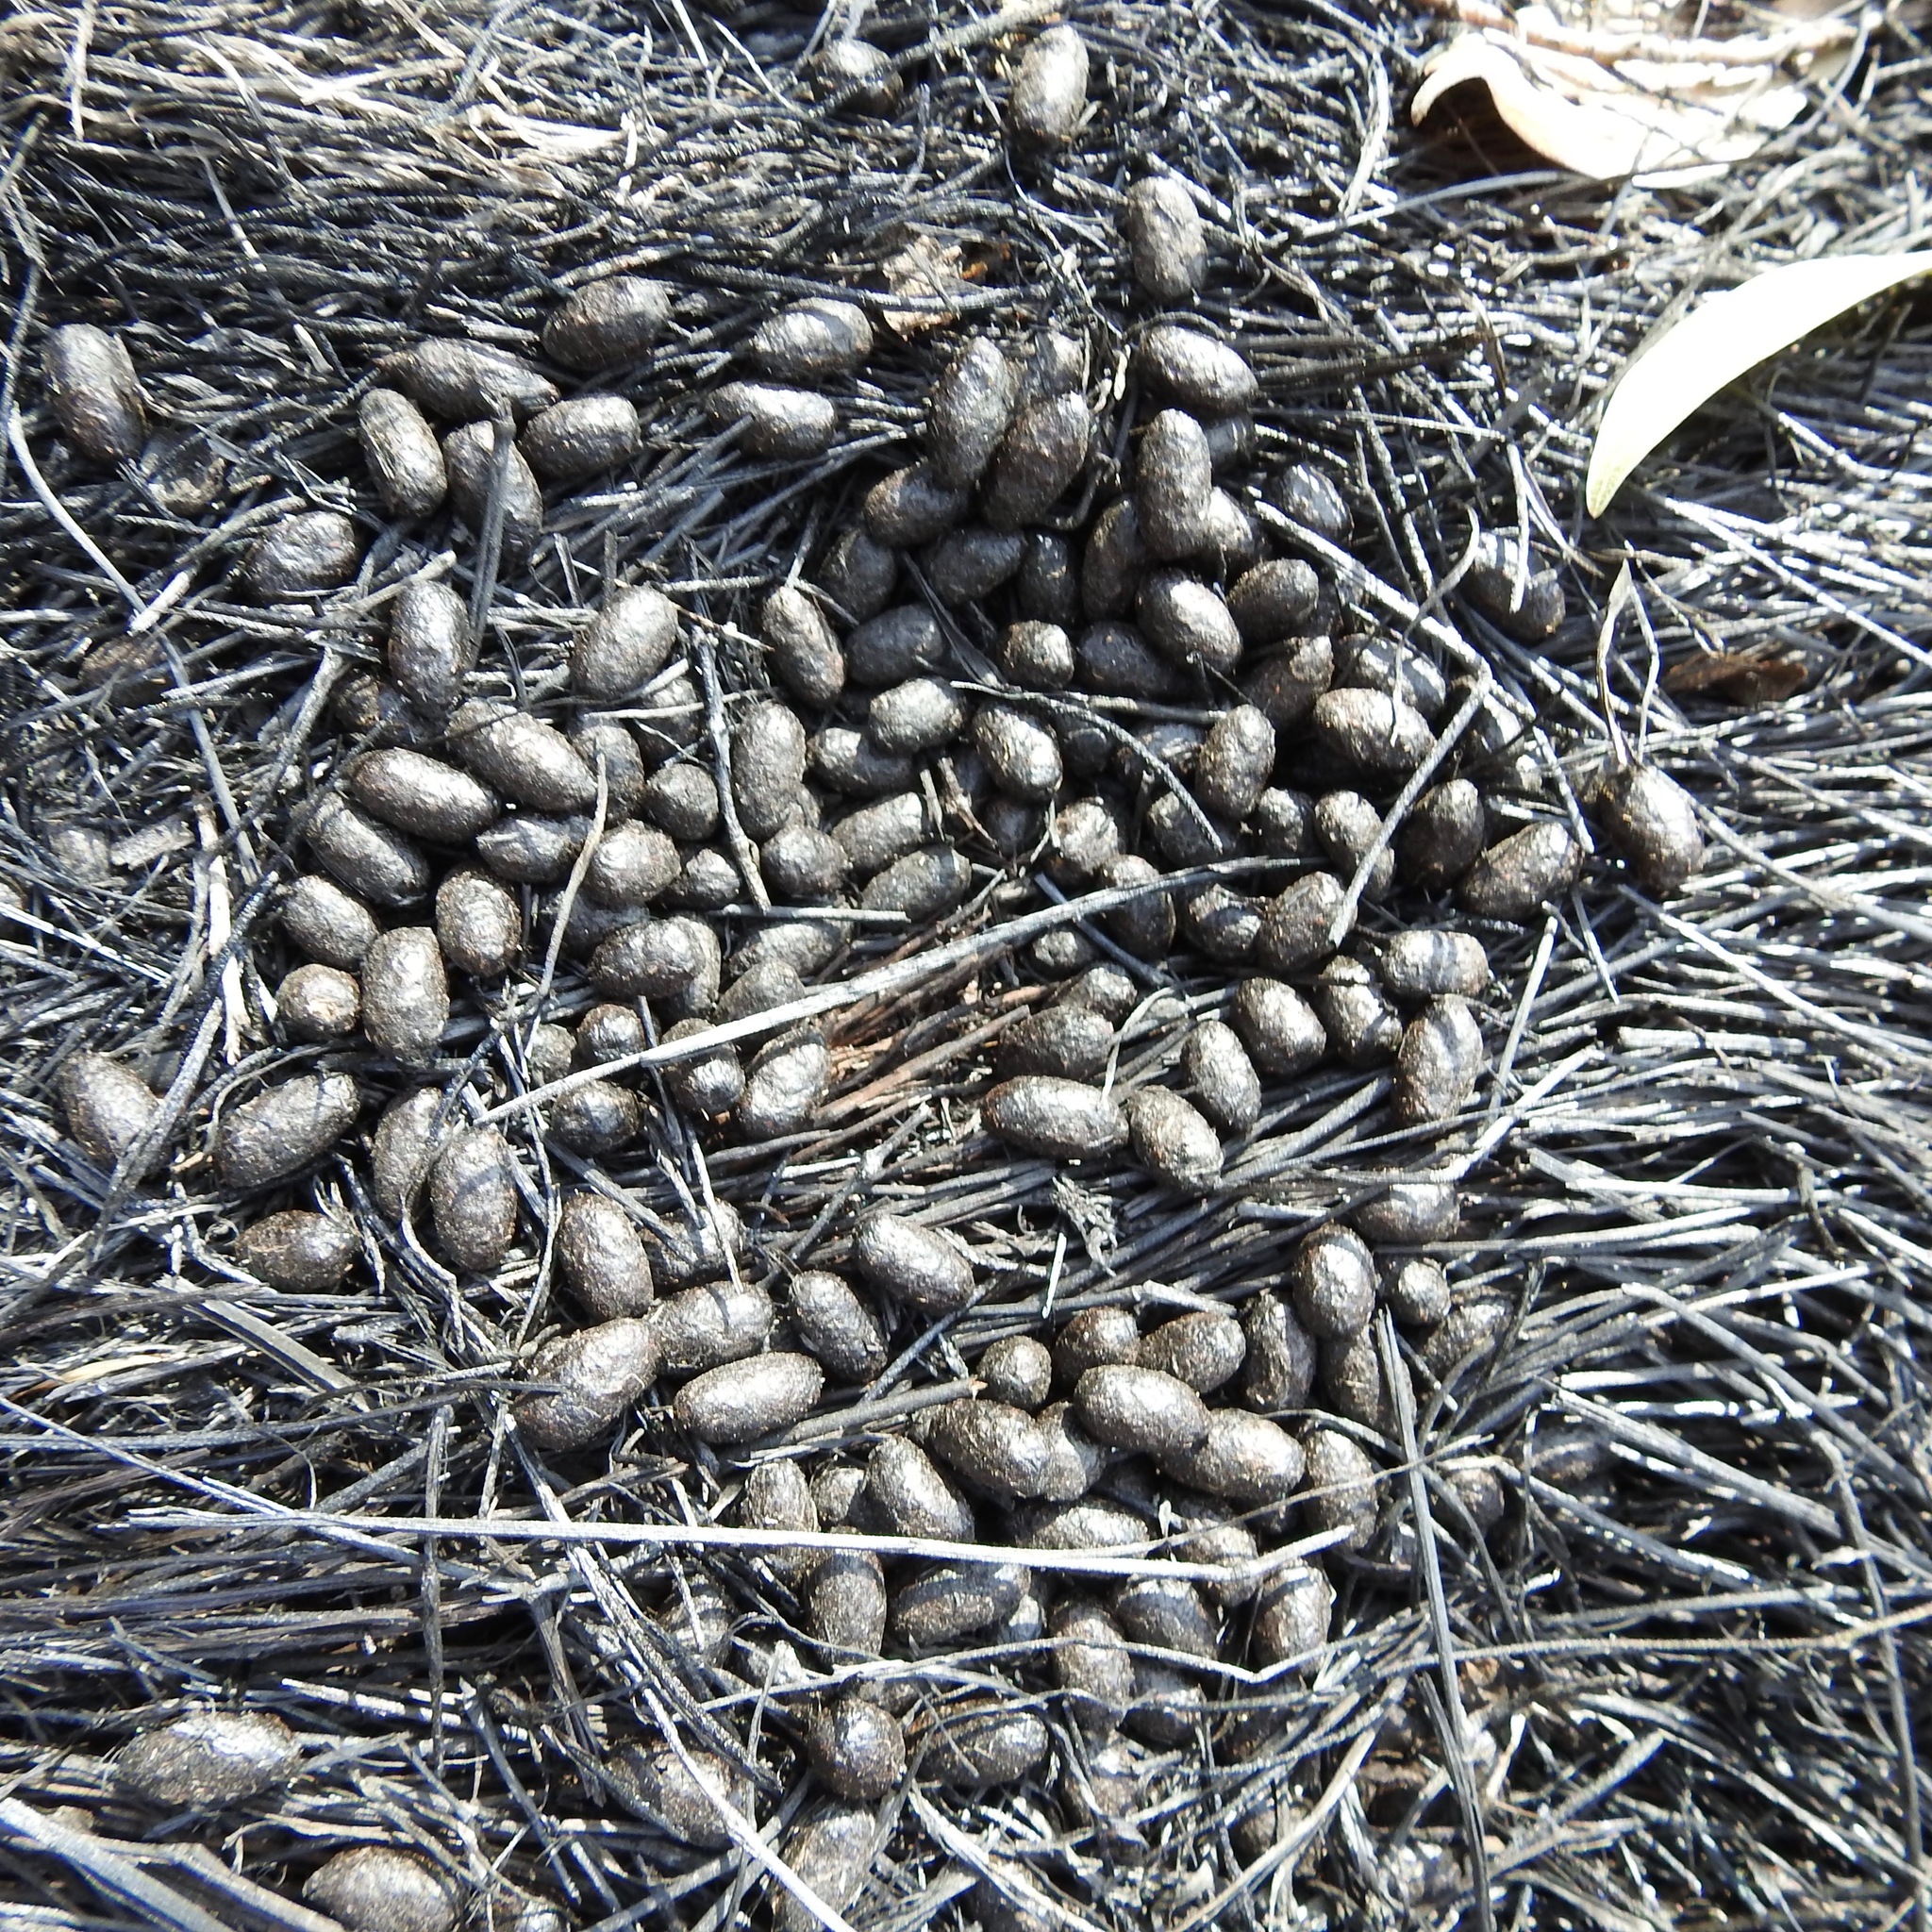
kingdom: Animalia
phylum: Chordata
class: Mammalia
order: Artiodactyla
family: Cervidae
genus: Odocoileus
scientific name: Odocoileus hemionus
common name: Mule deer
